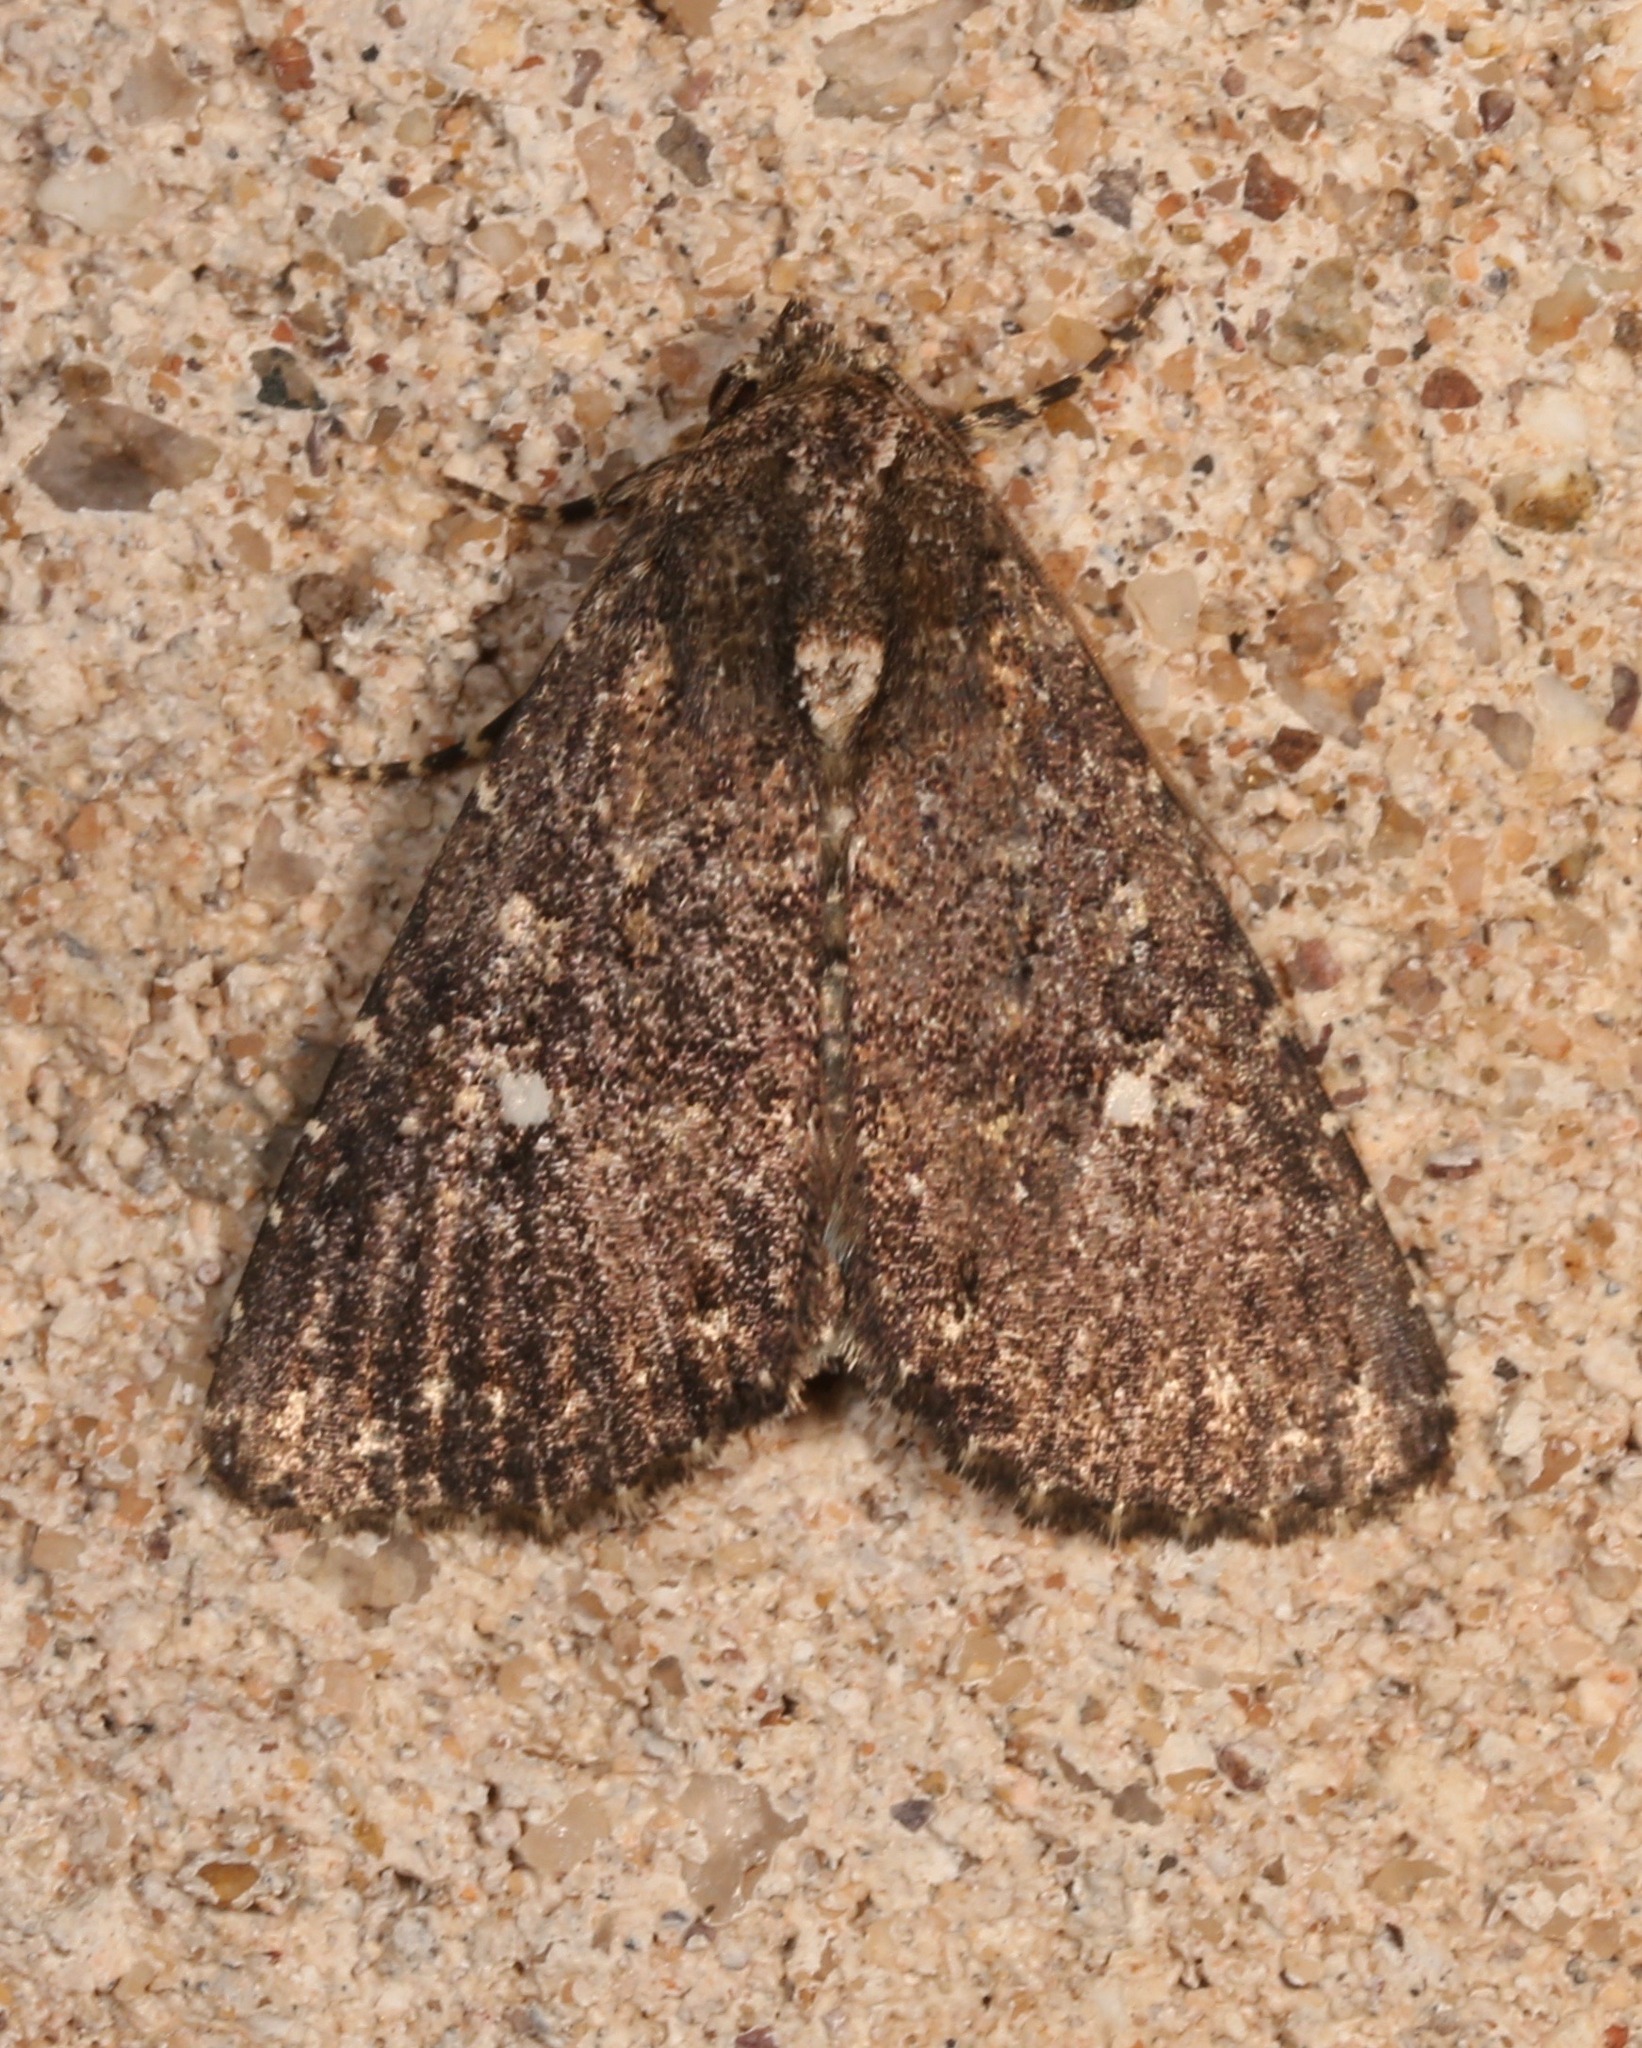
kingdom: Animalia
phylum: Arthropoda
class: Insecta
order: Lepidoptera
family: Noctuidae
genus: Condica
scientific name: Condica albolabes
